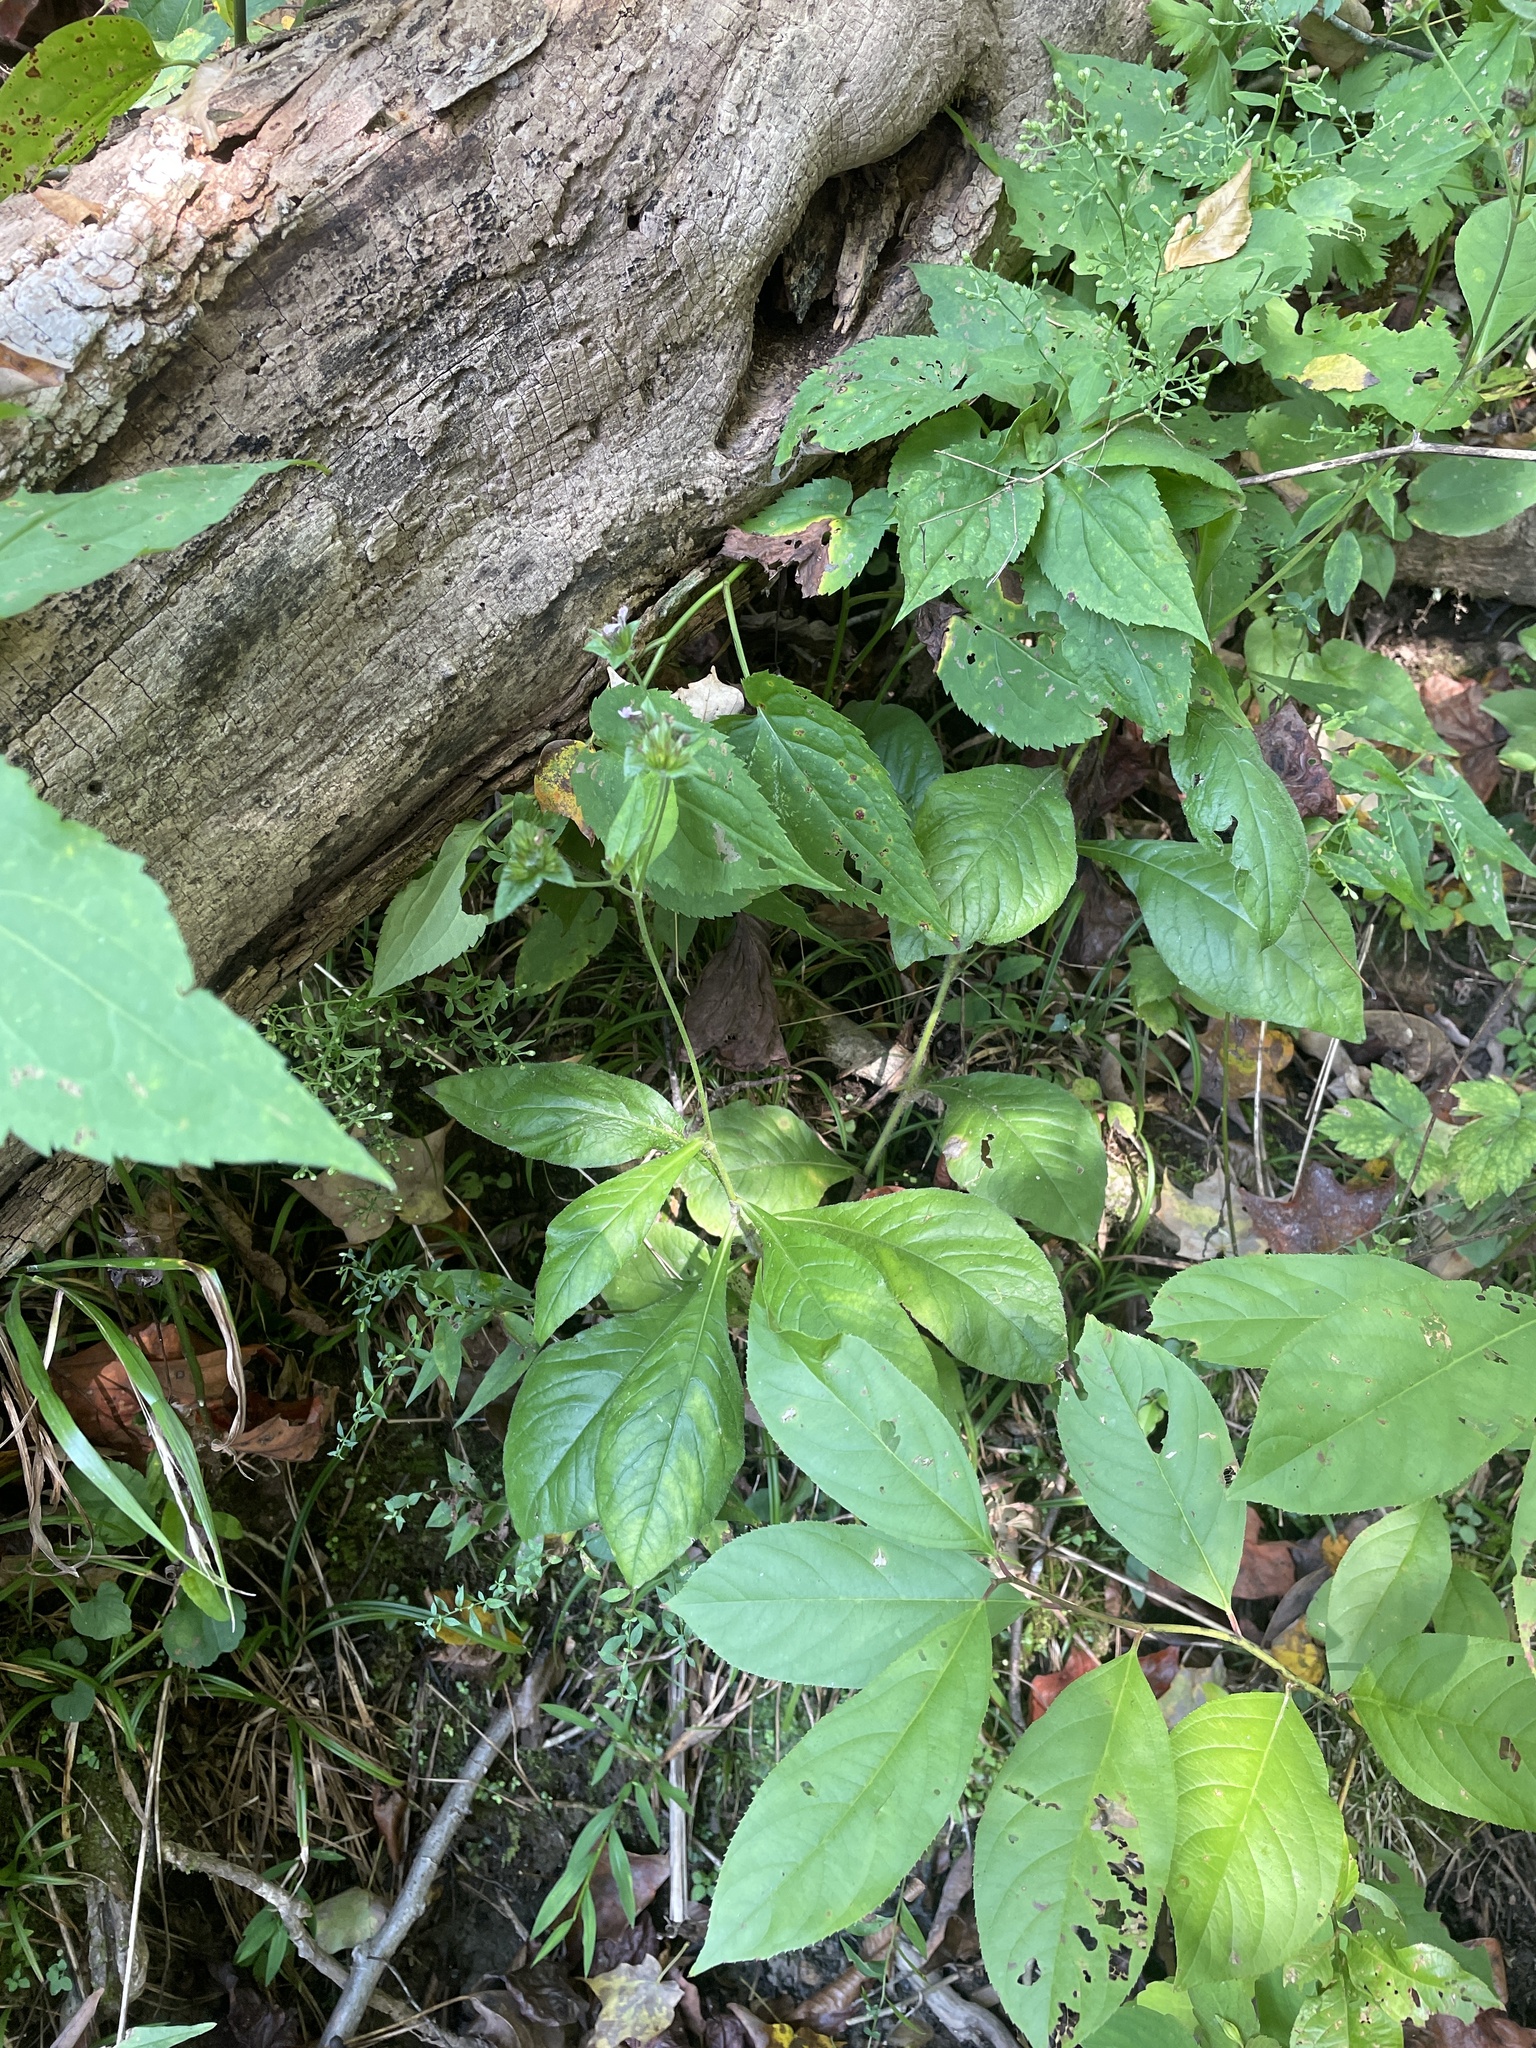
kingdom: Plantae
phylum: Tracheophyta
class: Magnoliopsida
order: Asterales
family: Asteraceae
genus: Elephantopus
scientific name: Elephantopus carolinianus
